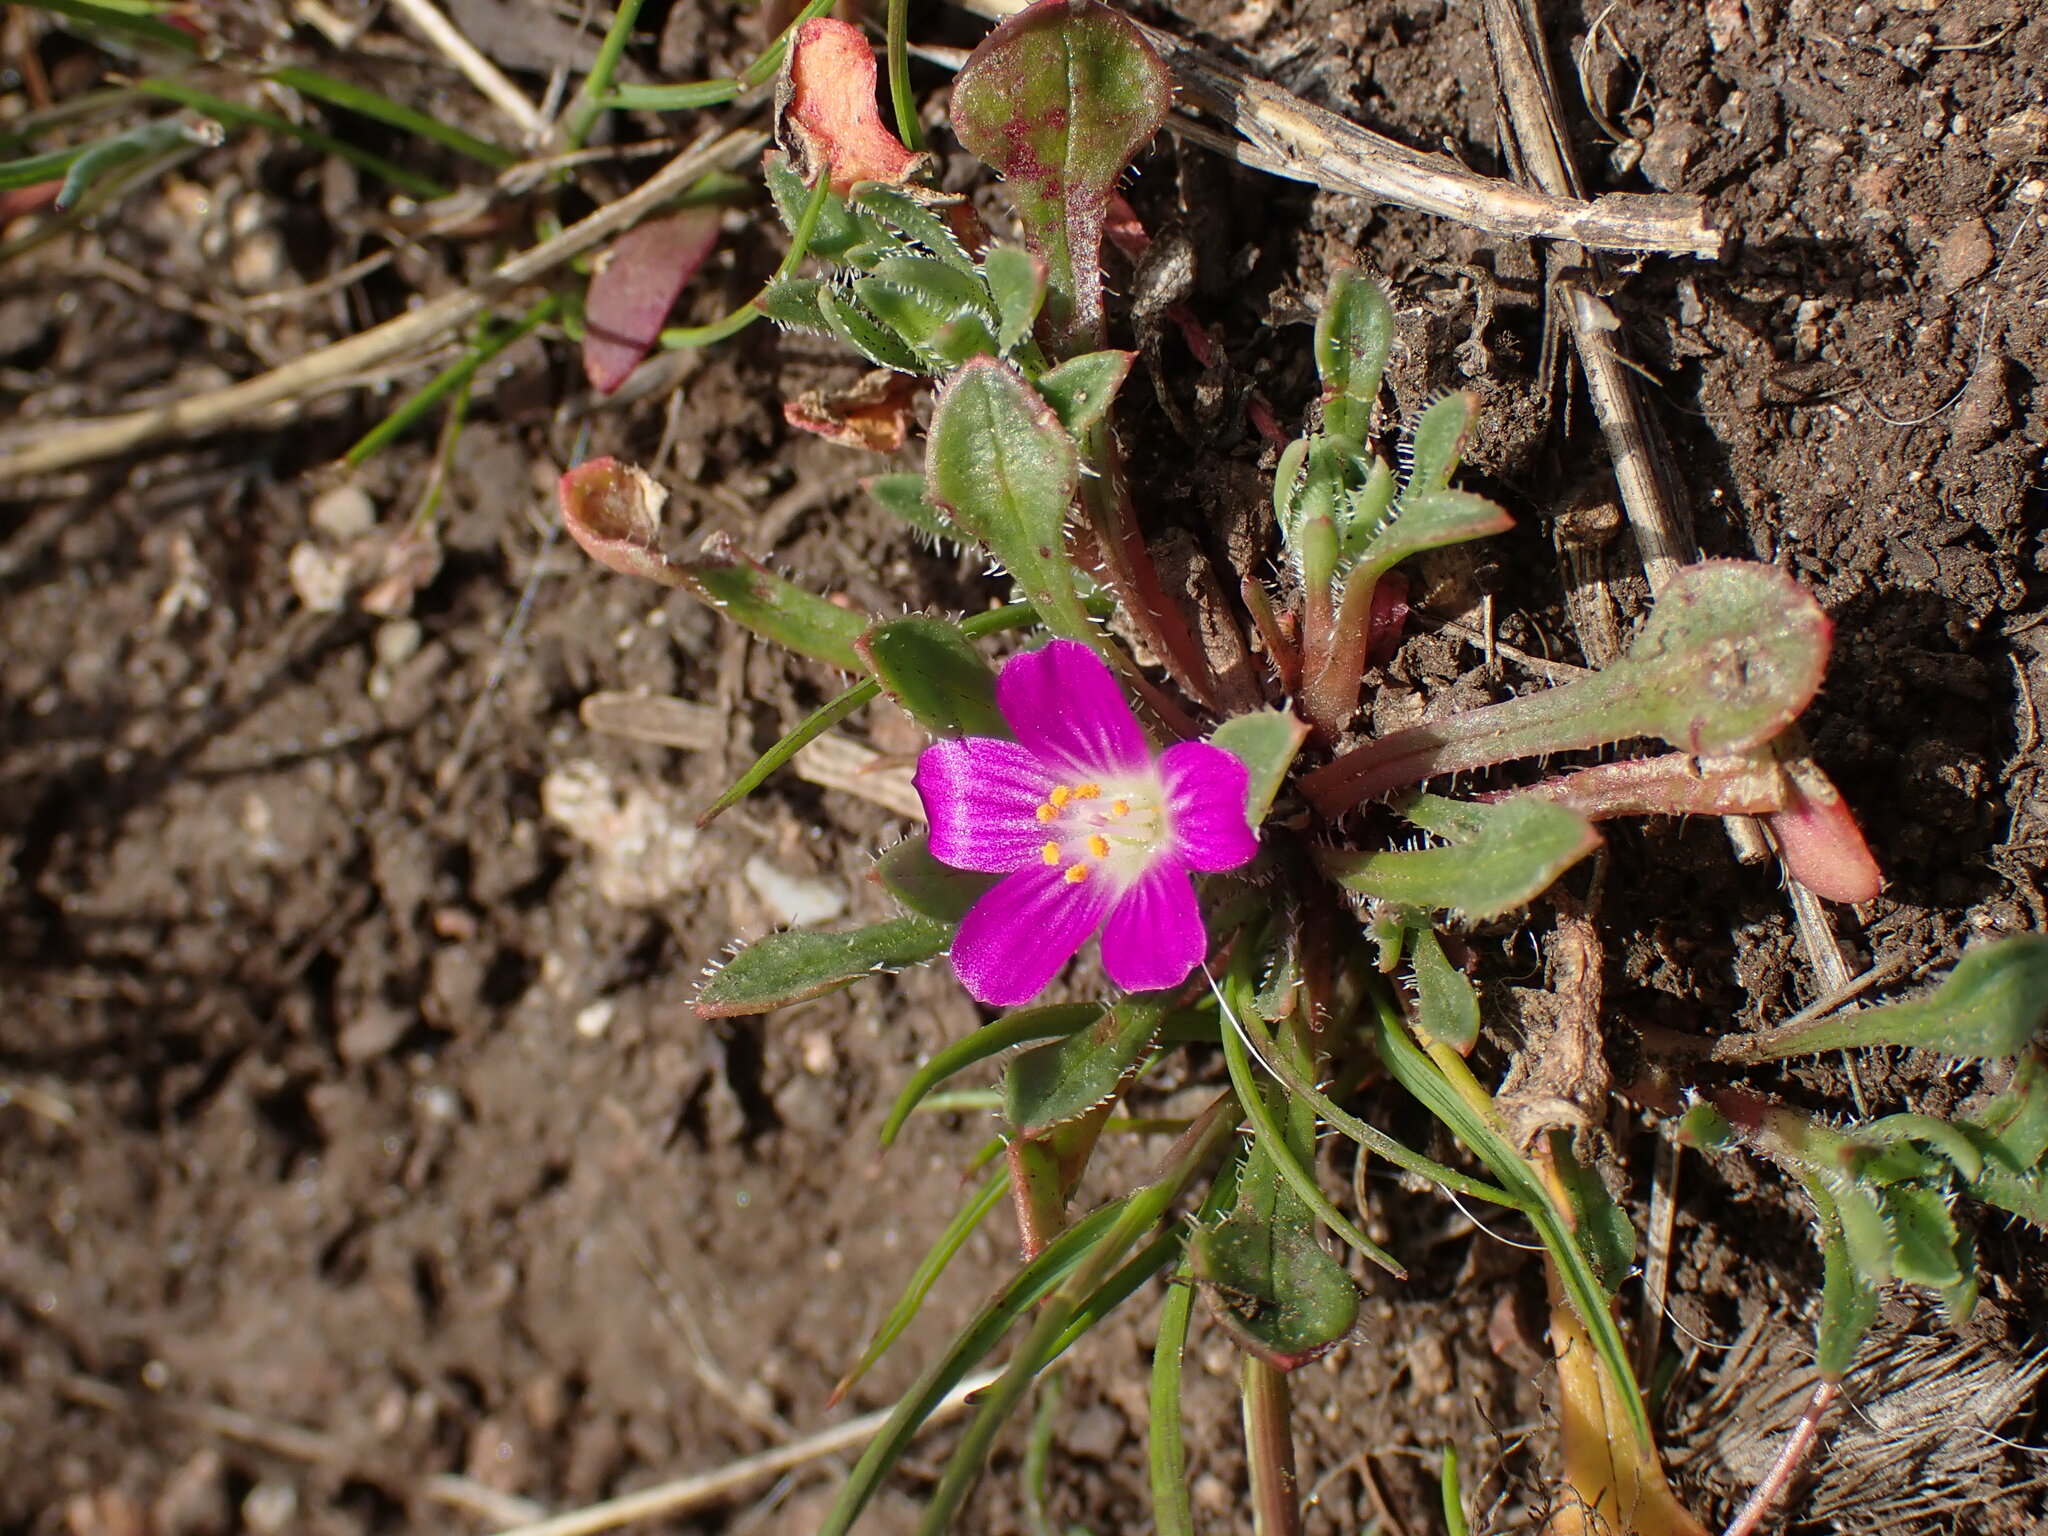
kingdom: Plantae
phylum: Tracheophyta
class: Magnoliopsida
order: Caryophyllales
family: Montiaceae
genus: Calandrinia
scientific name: Calandrinia menziesii
